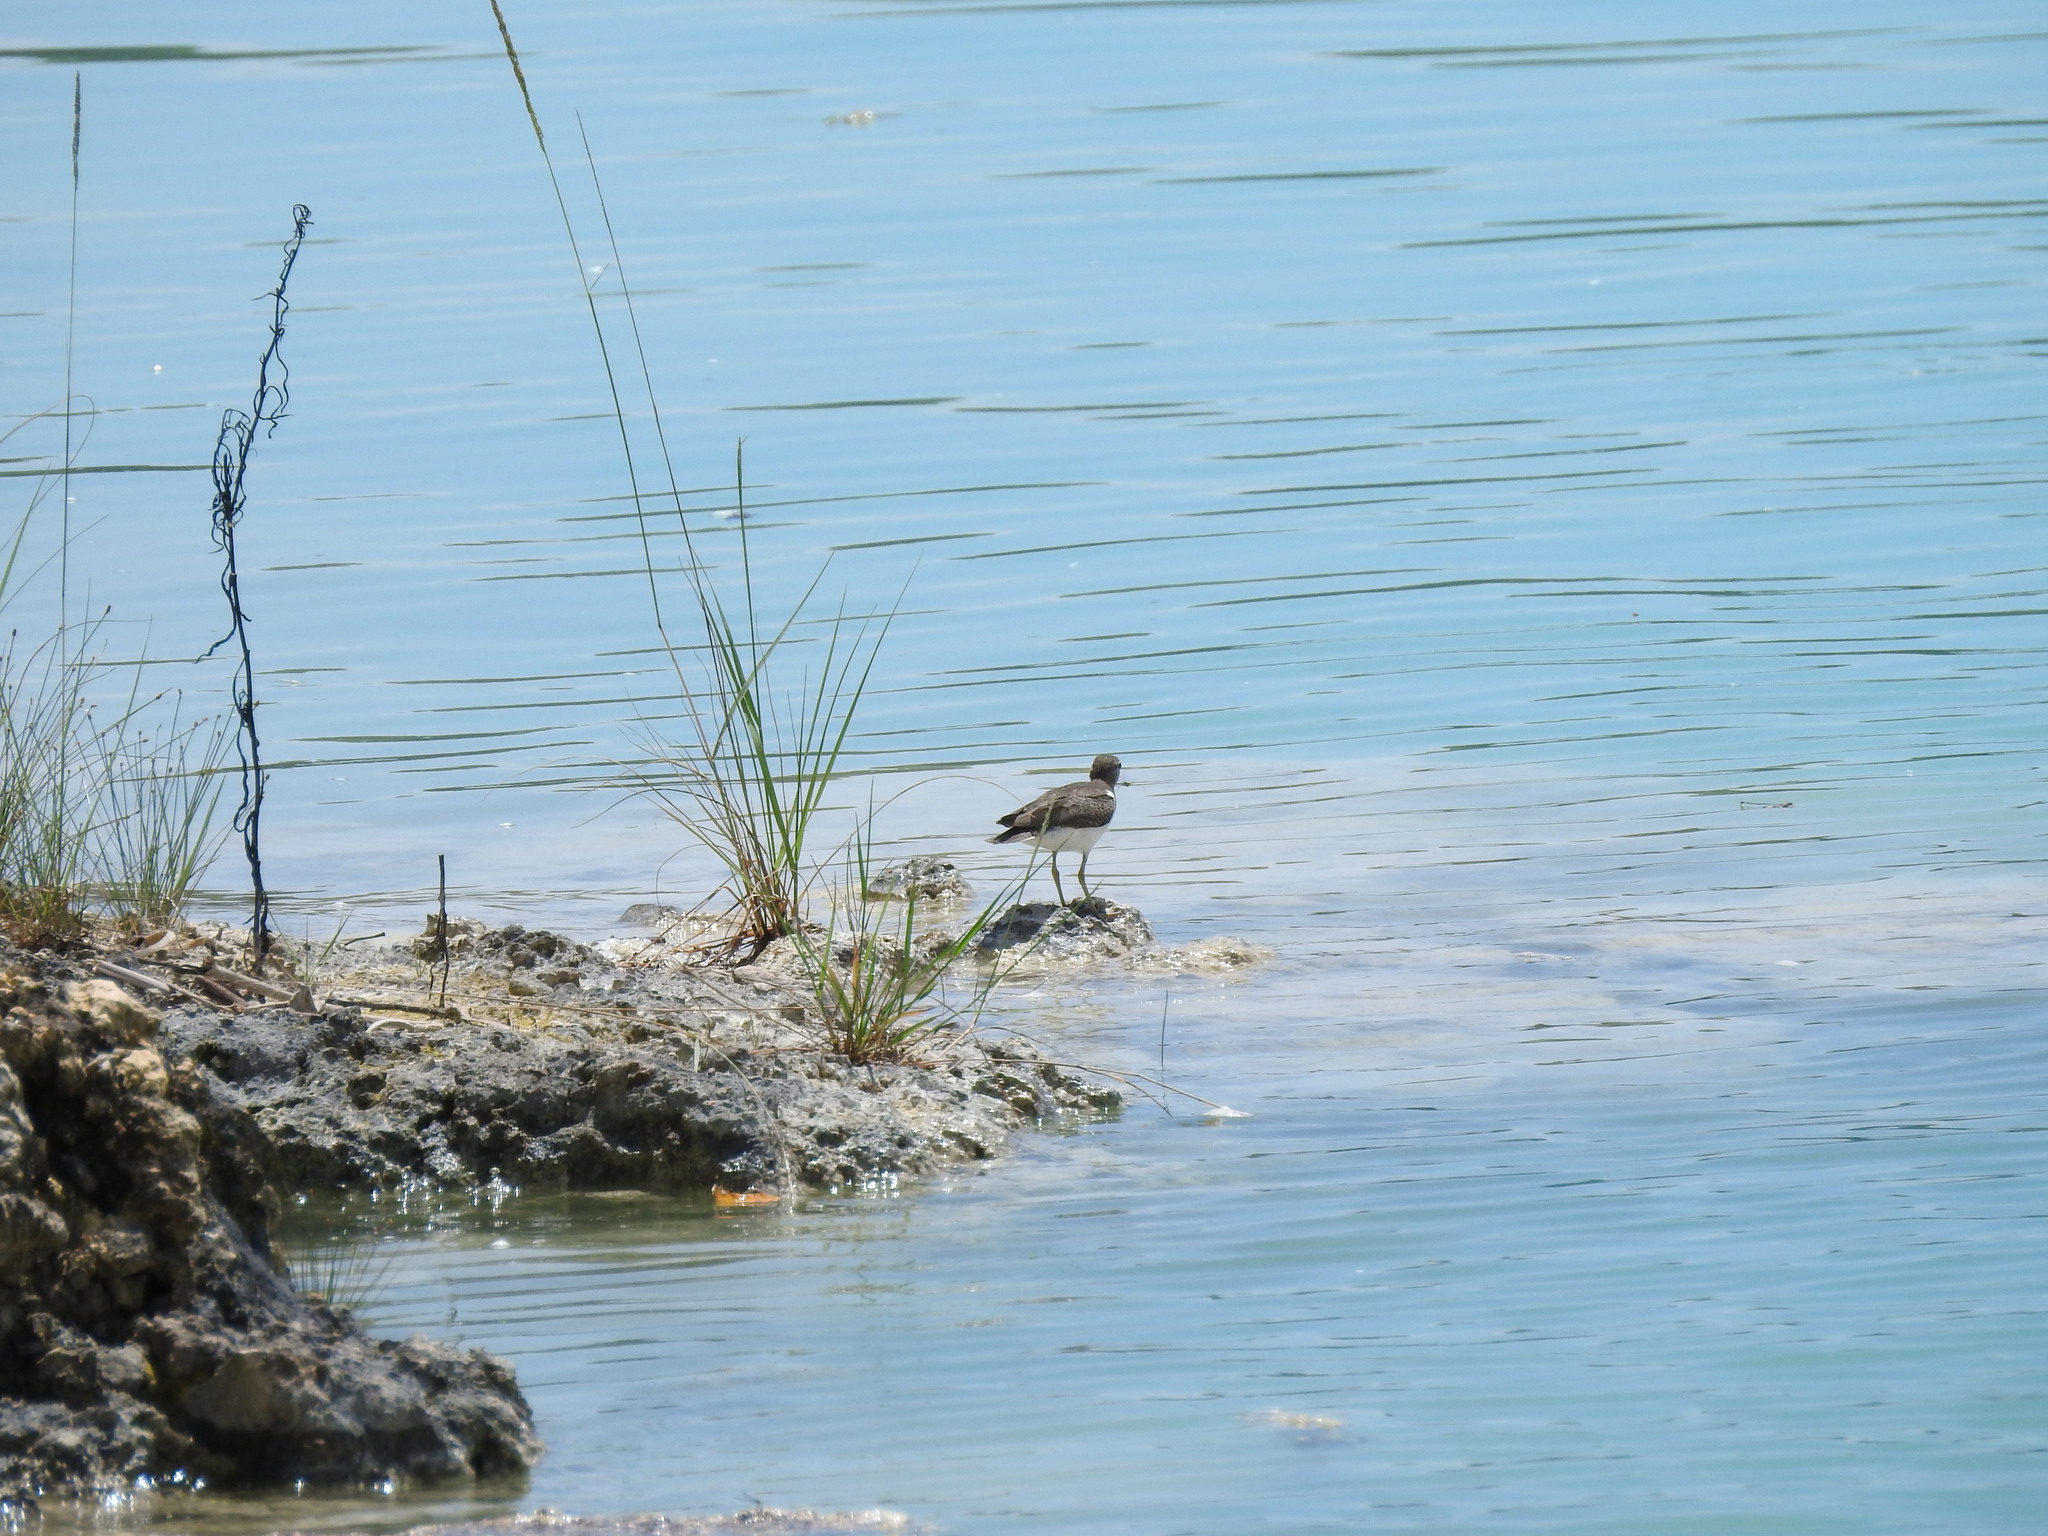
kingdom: Animalia
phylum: Chordata
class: Aves
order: Charadriiformes
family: Scolopacidae
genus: Actitis
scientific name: Actitis macularius
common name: Spotted sandpiper
